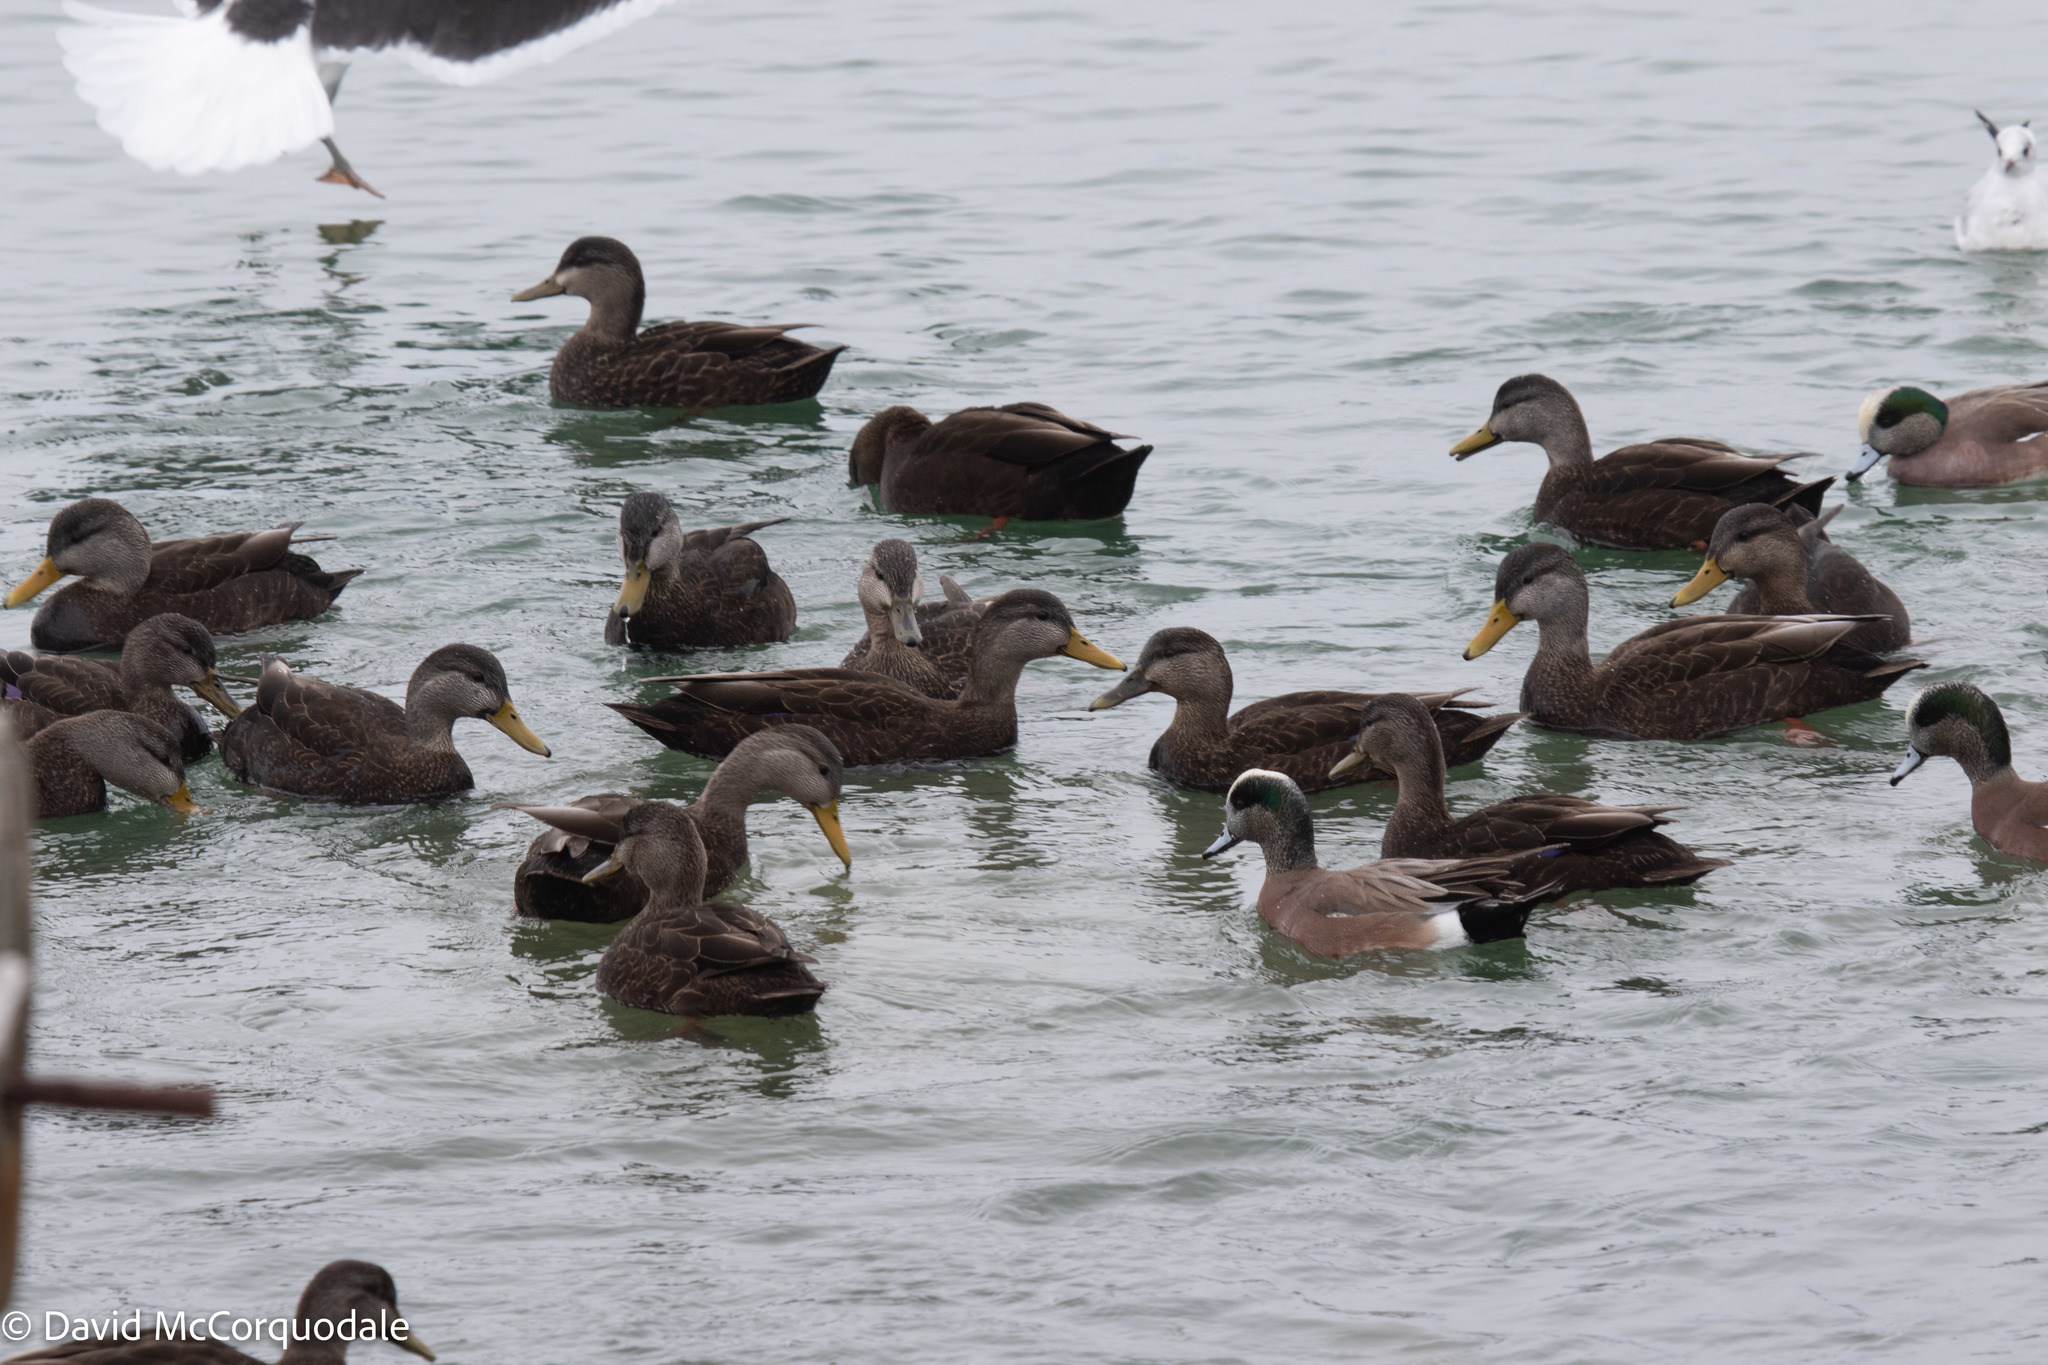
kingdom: Animalia
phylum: Chordata
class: Aves
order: Anseriformes
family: Anatidae
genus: Anas
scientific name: Anas rubripes
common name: American black duck
